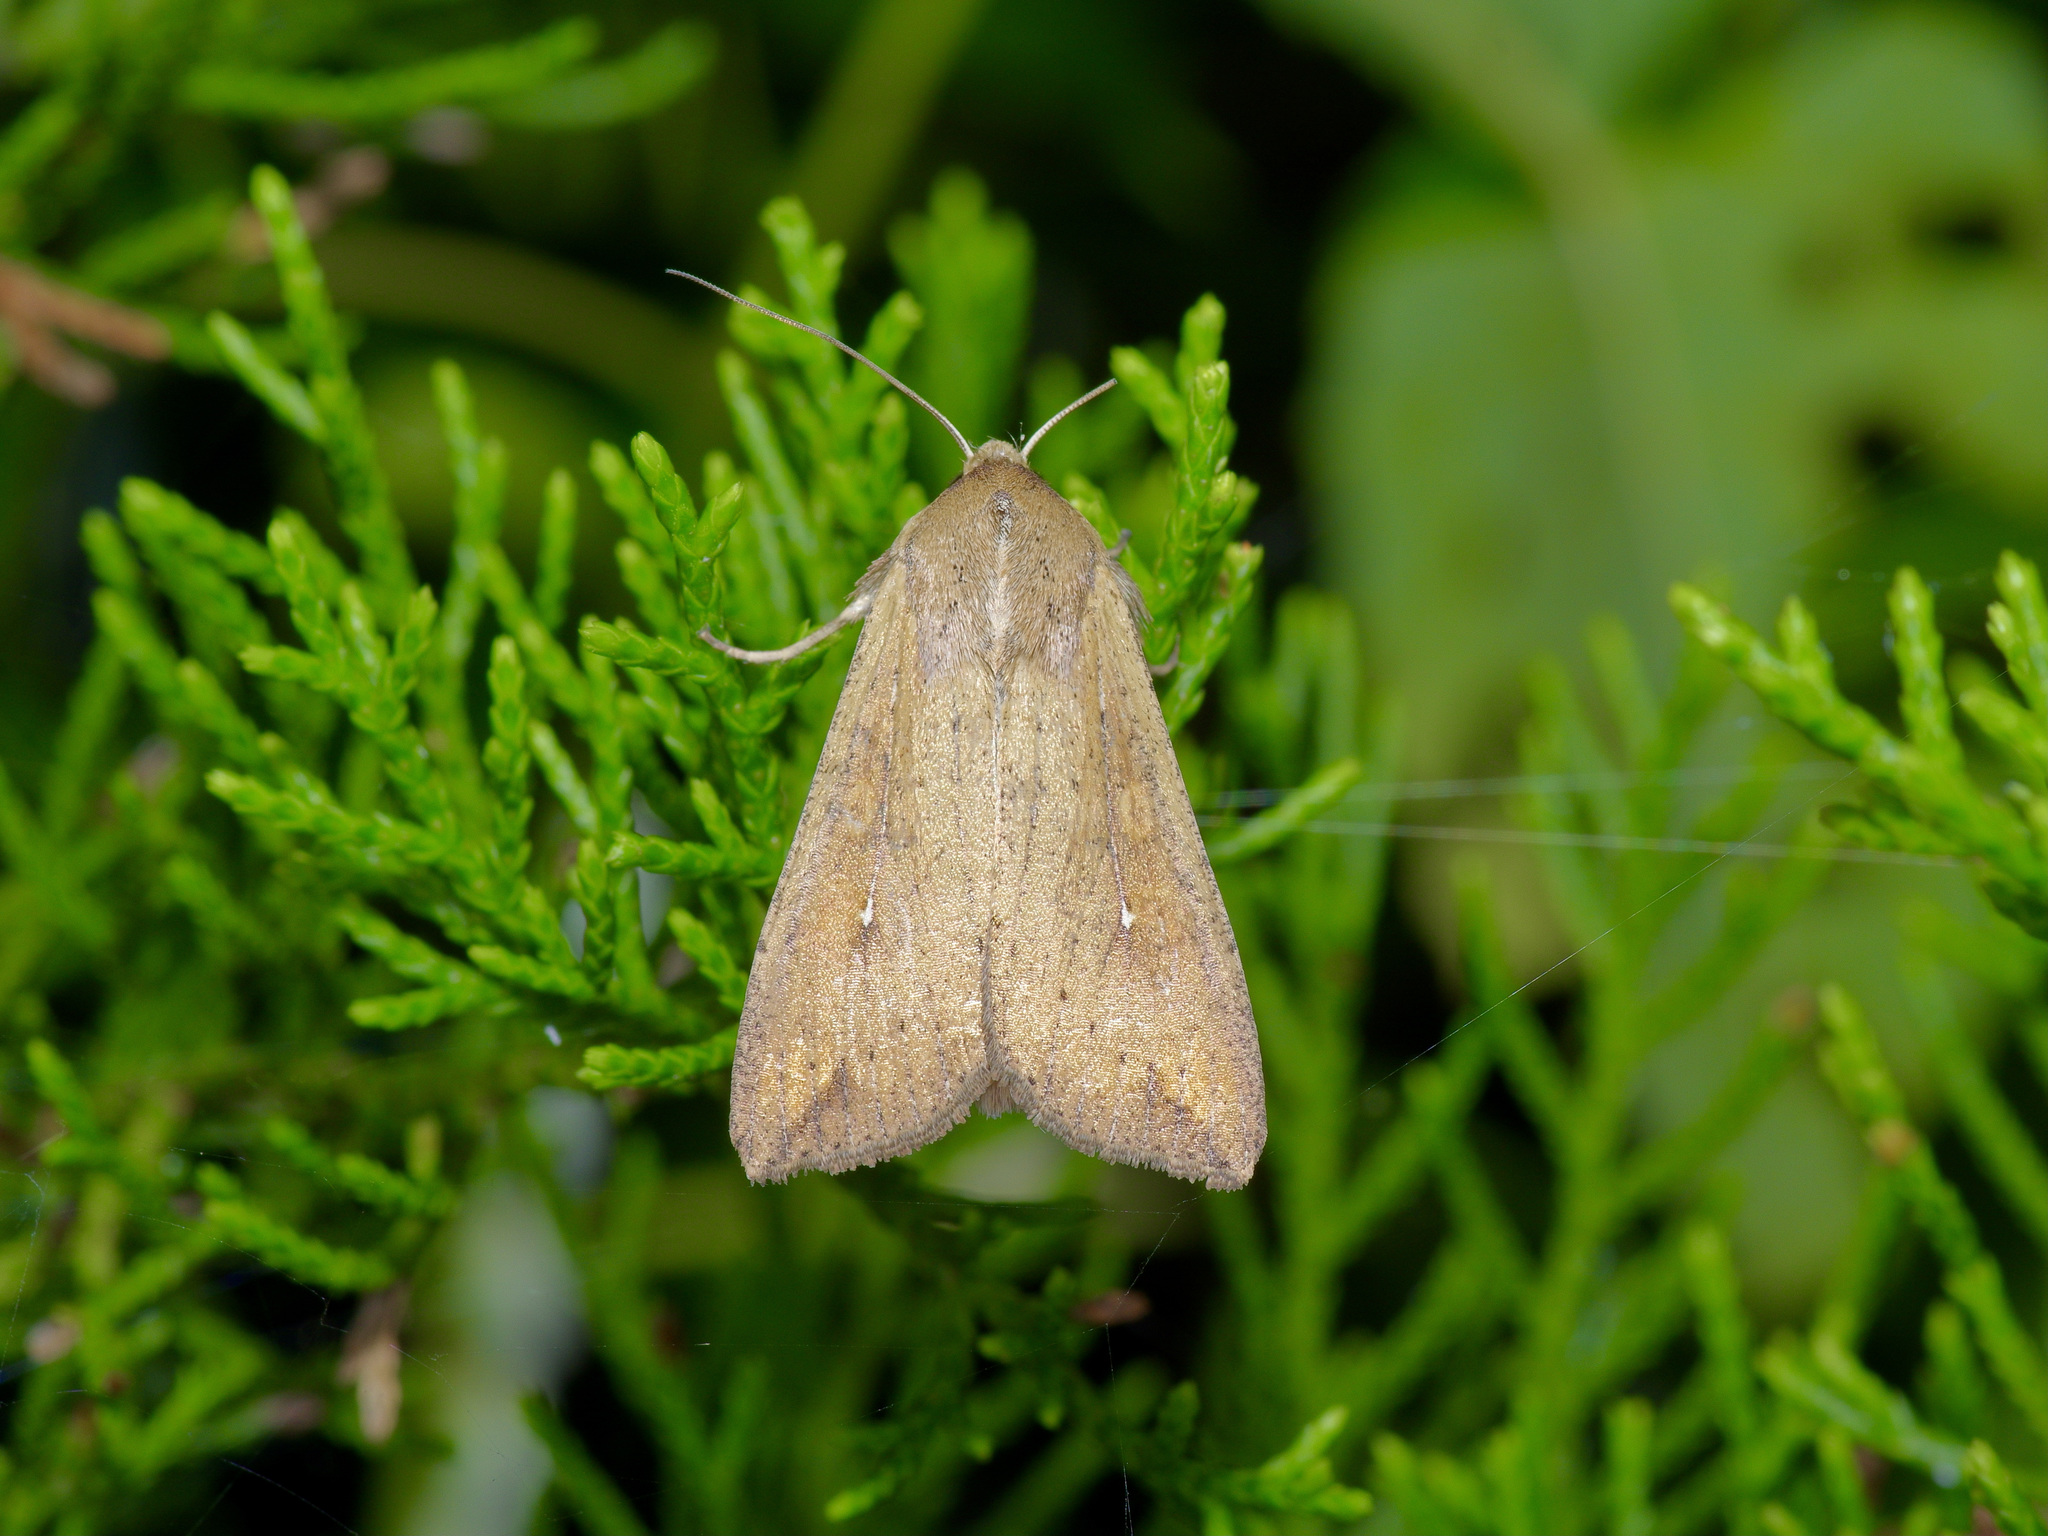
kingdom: Animalia
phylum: Arthropoda
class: Insecta
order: Lepidoptera
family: Noctuidae
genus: Mythimna
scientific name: Mythimna unipuncta
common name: White-speck
